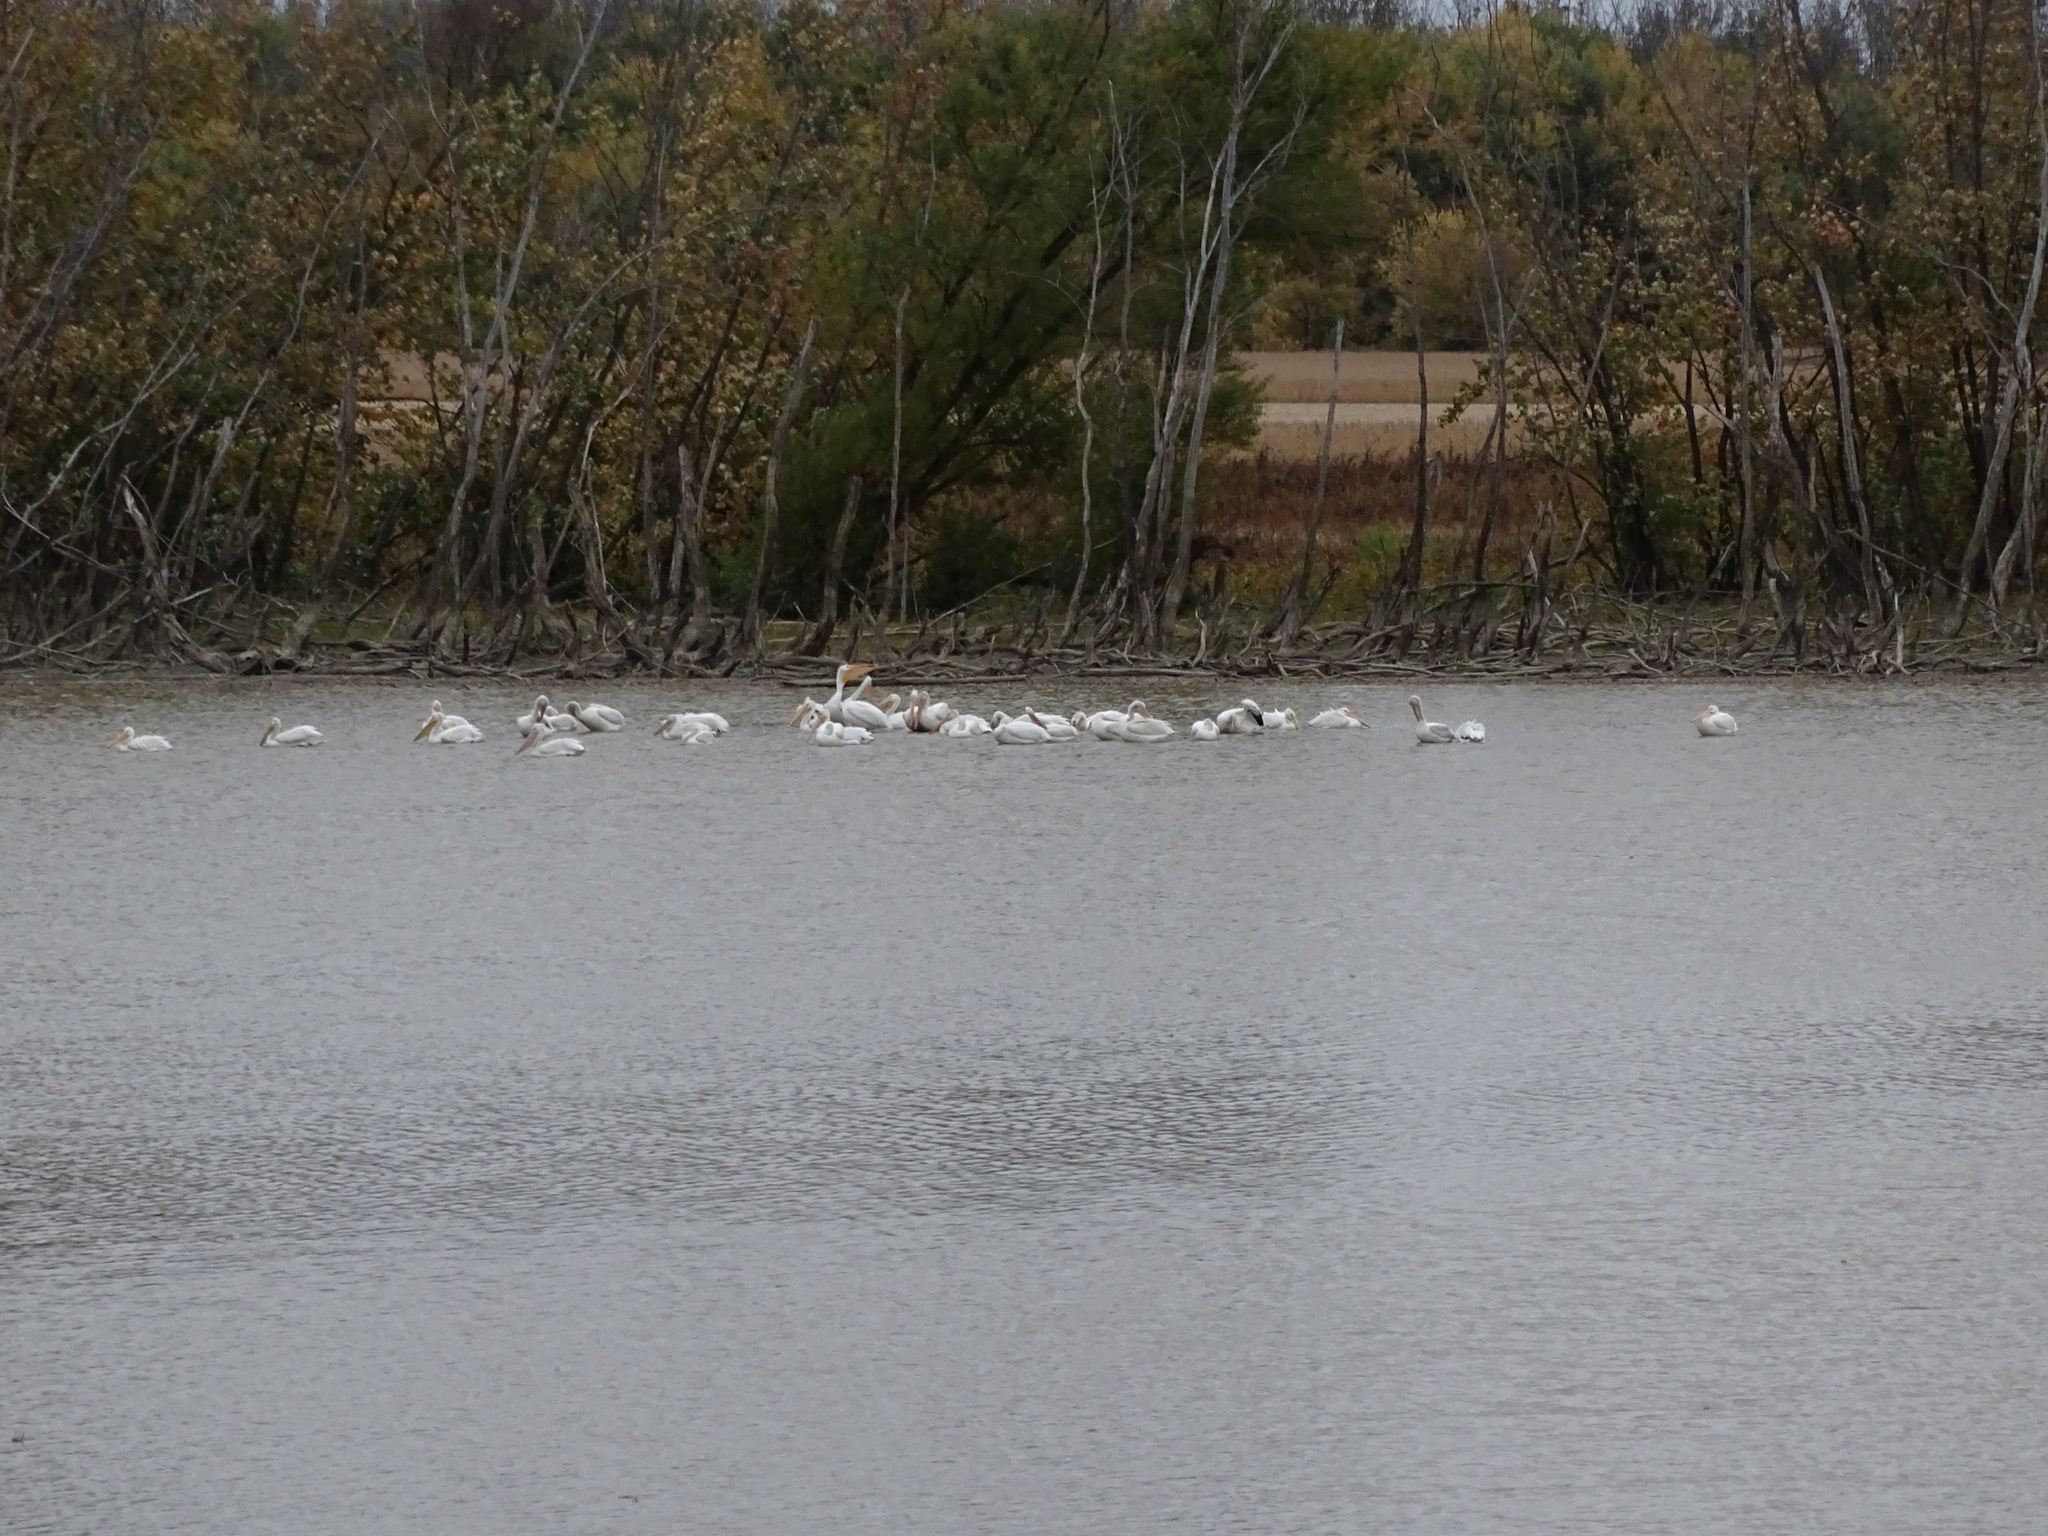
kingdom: Animalia
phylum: Chordata
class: Aves
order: Pelecaniformes
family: Pelecanidae
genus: Pelecanus
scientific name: Pelecanus erythrorhynchos
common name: American white pelican
